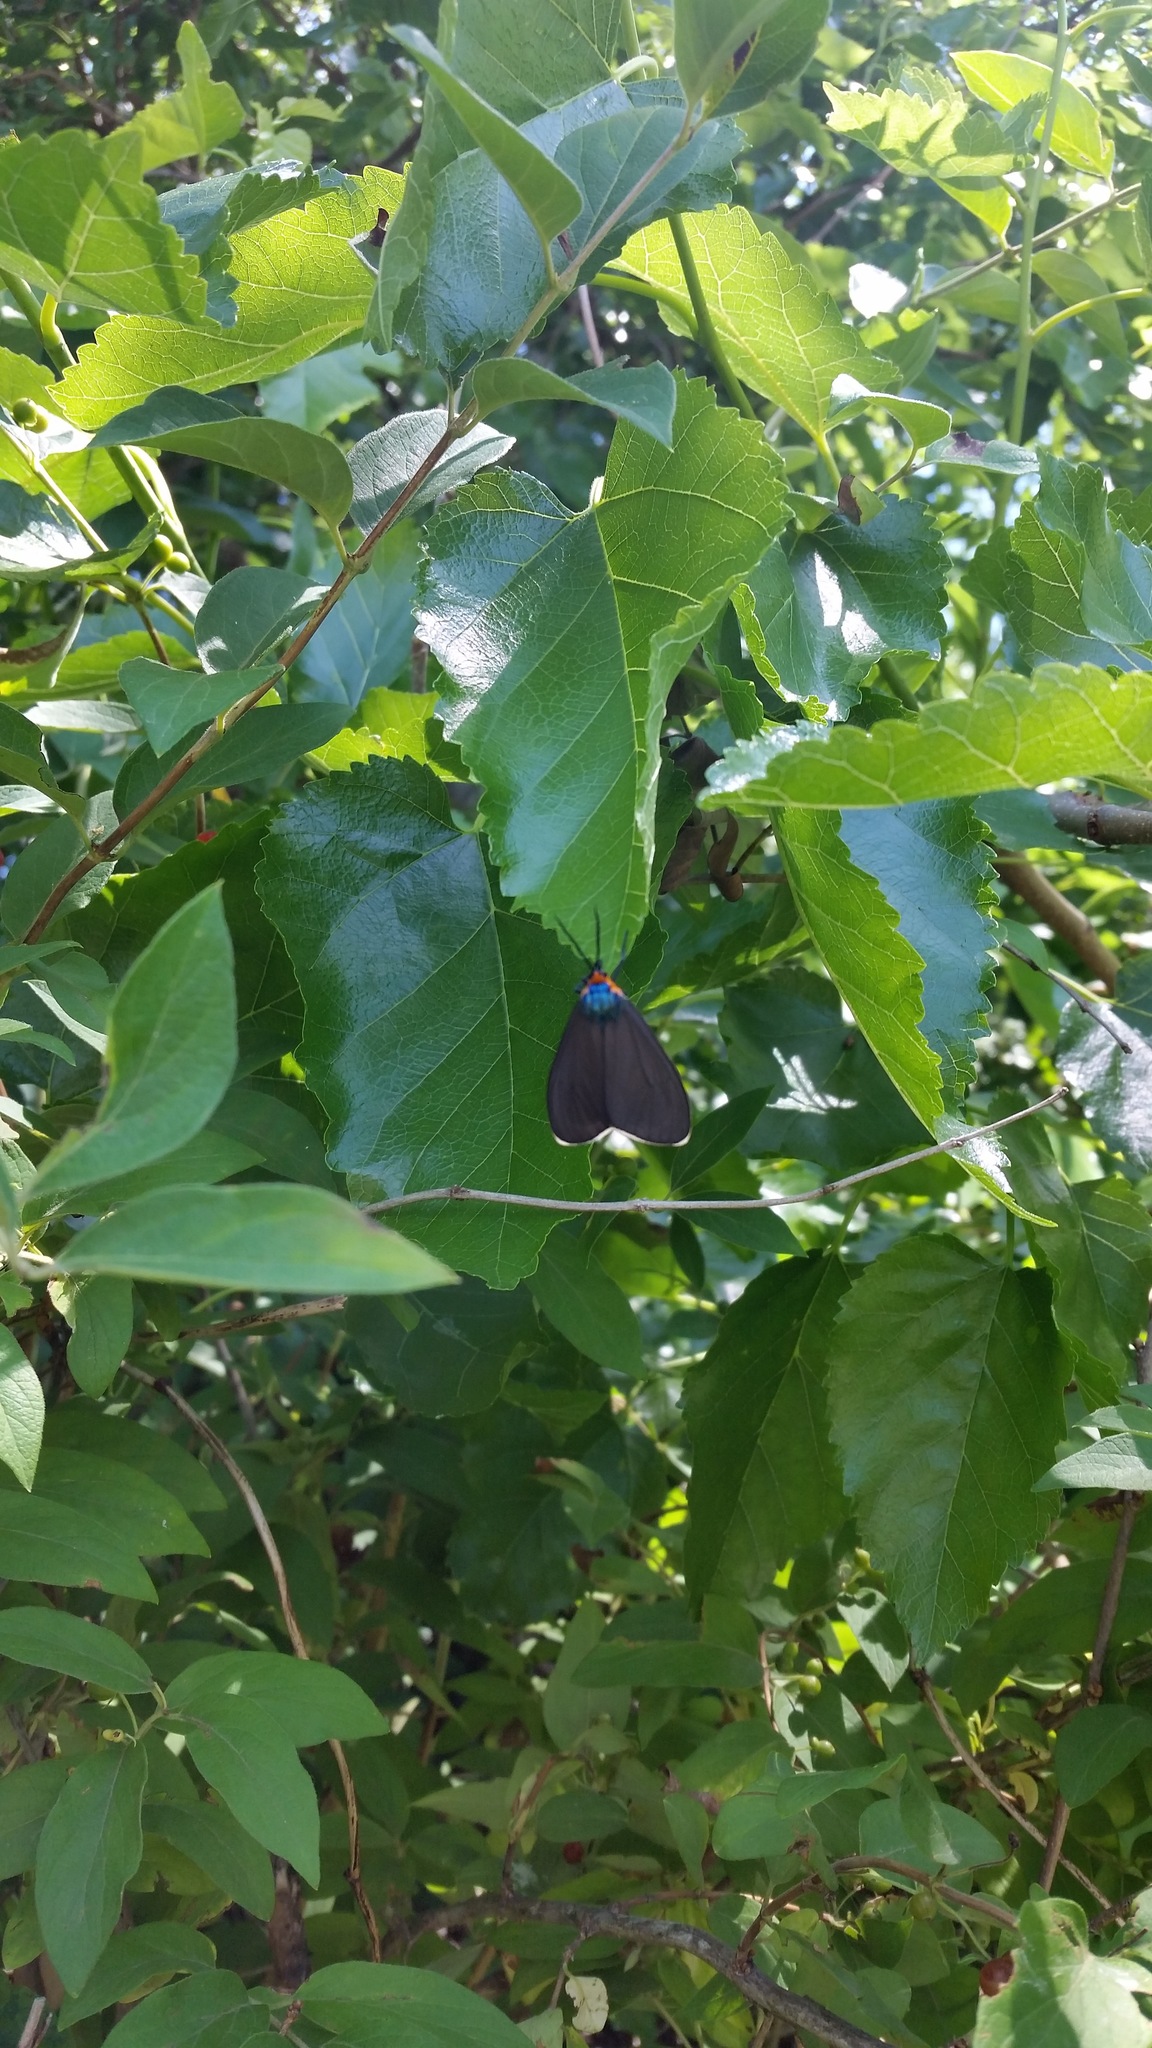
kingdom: Animalia
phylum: Arthropoda
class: Insecta
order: Lepidoptera
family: Erebidae
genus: Ctenucha
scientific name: Ctenucha virginica
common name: Virginia ctenucha moth
